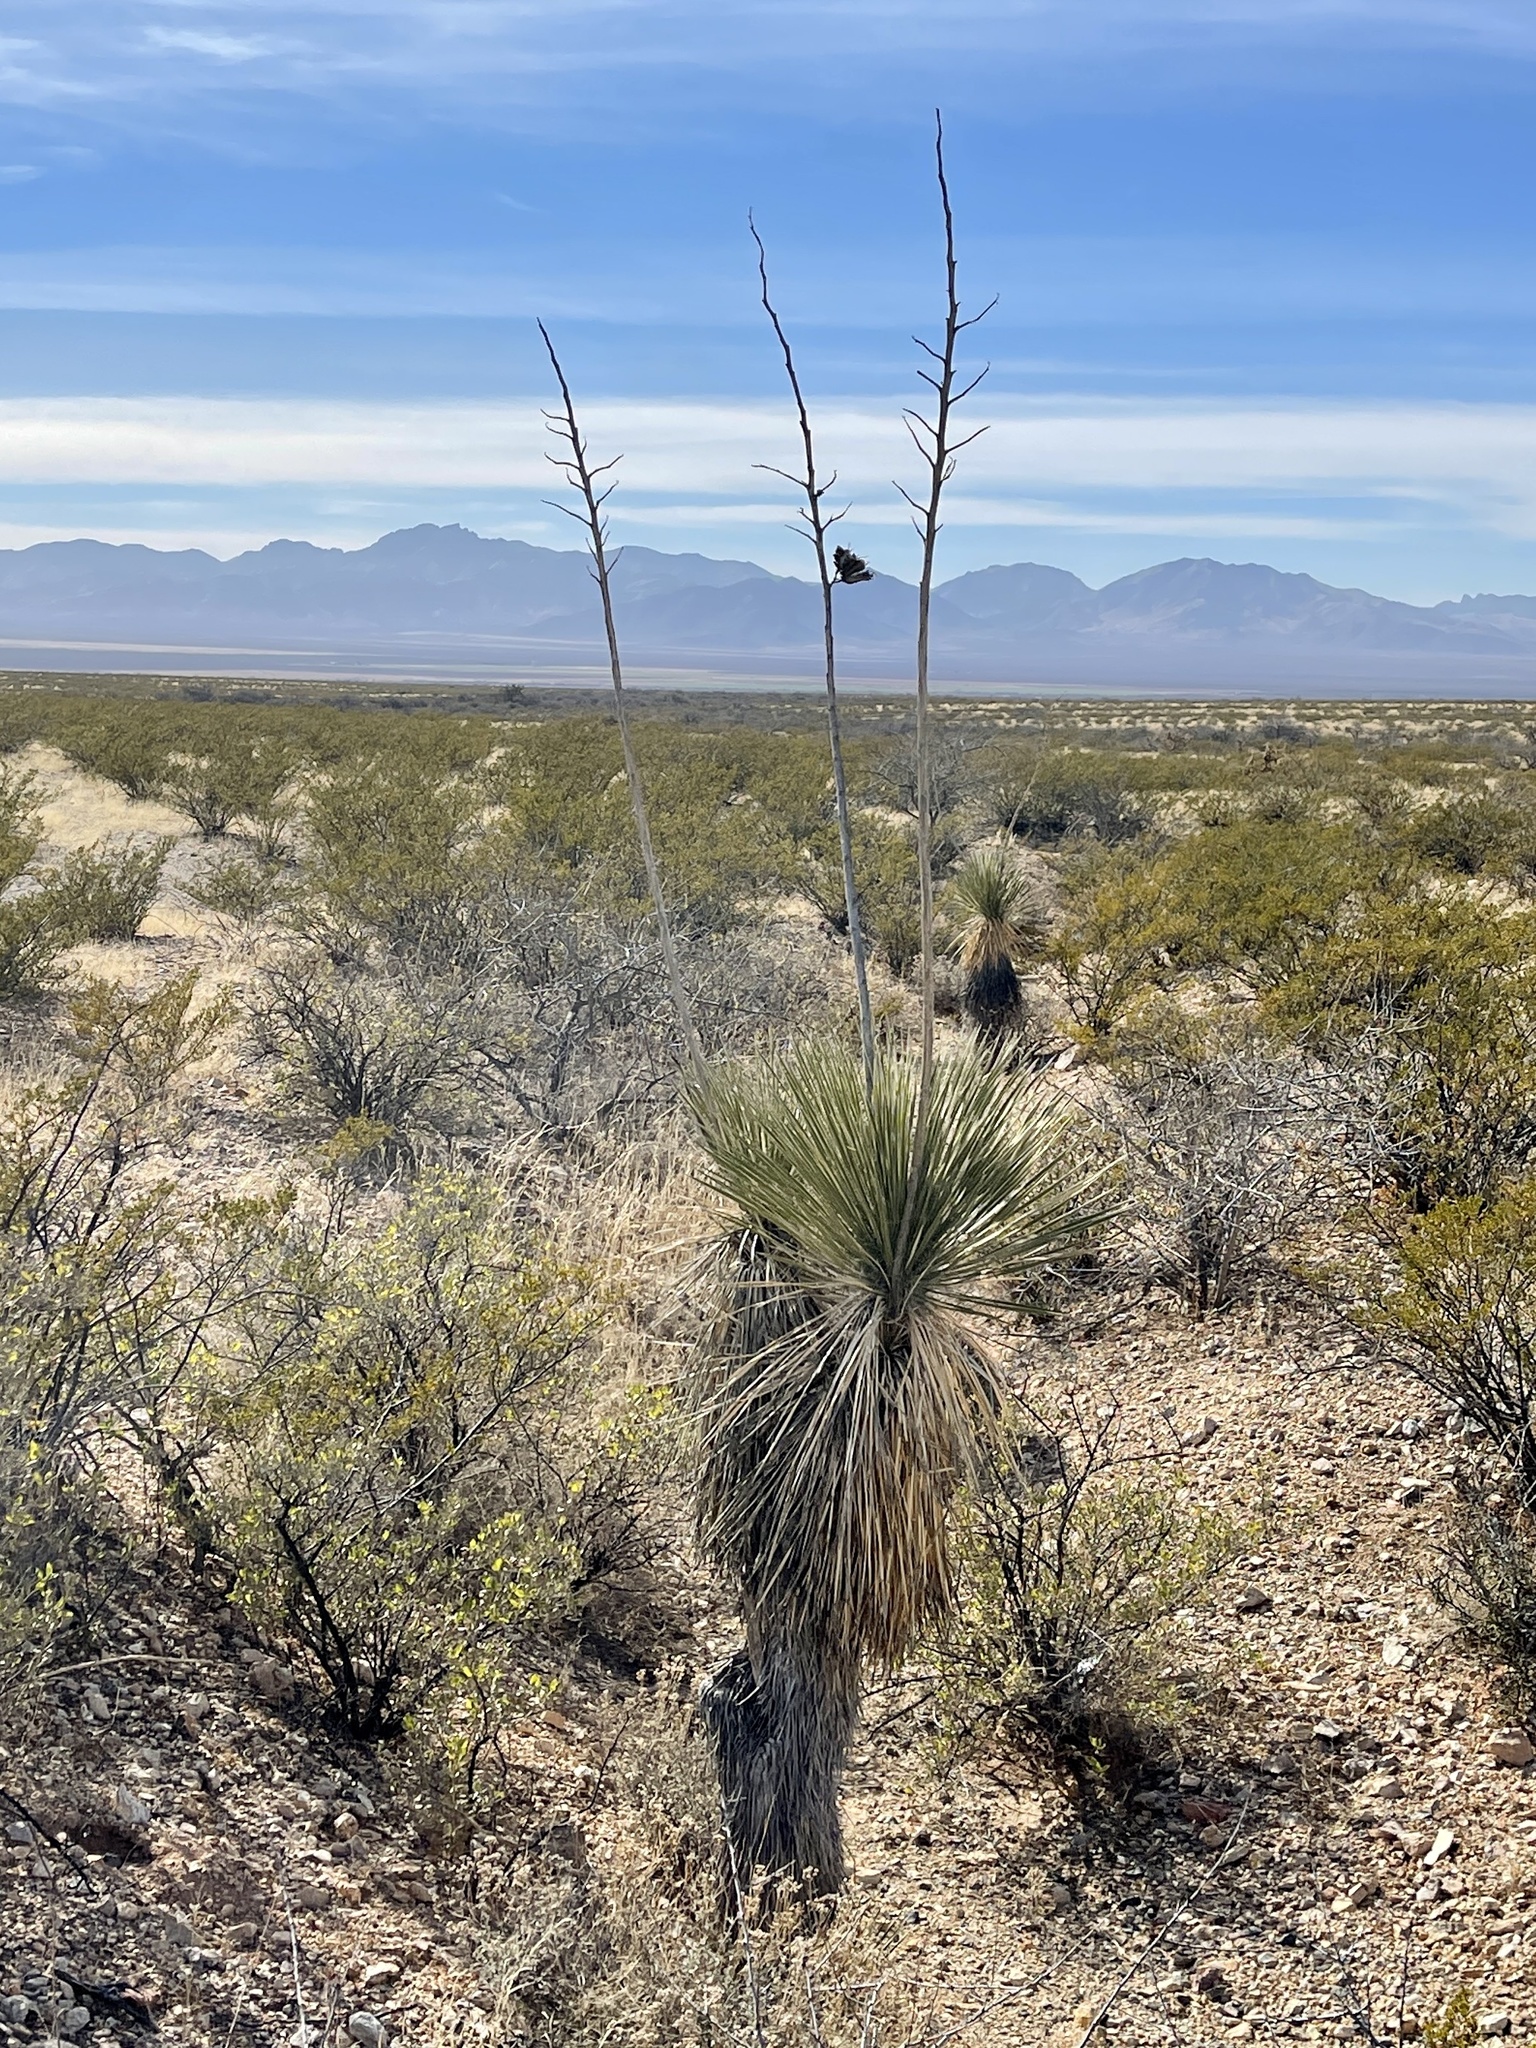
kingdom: Plantae
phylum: Tracheophyta
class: Liliopsida
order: Asparagales
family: Asparagaceae
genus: Yucca
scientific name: Yucca elata
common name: Palmella
